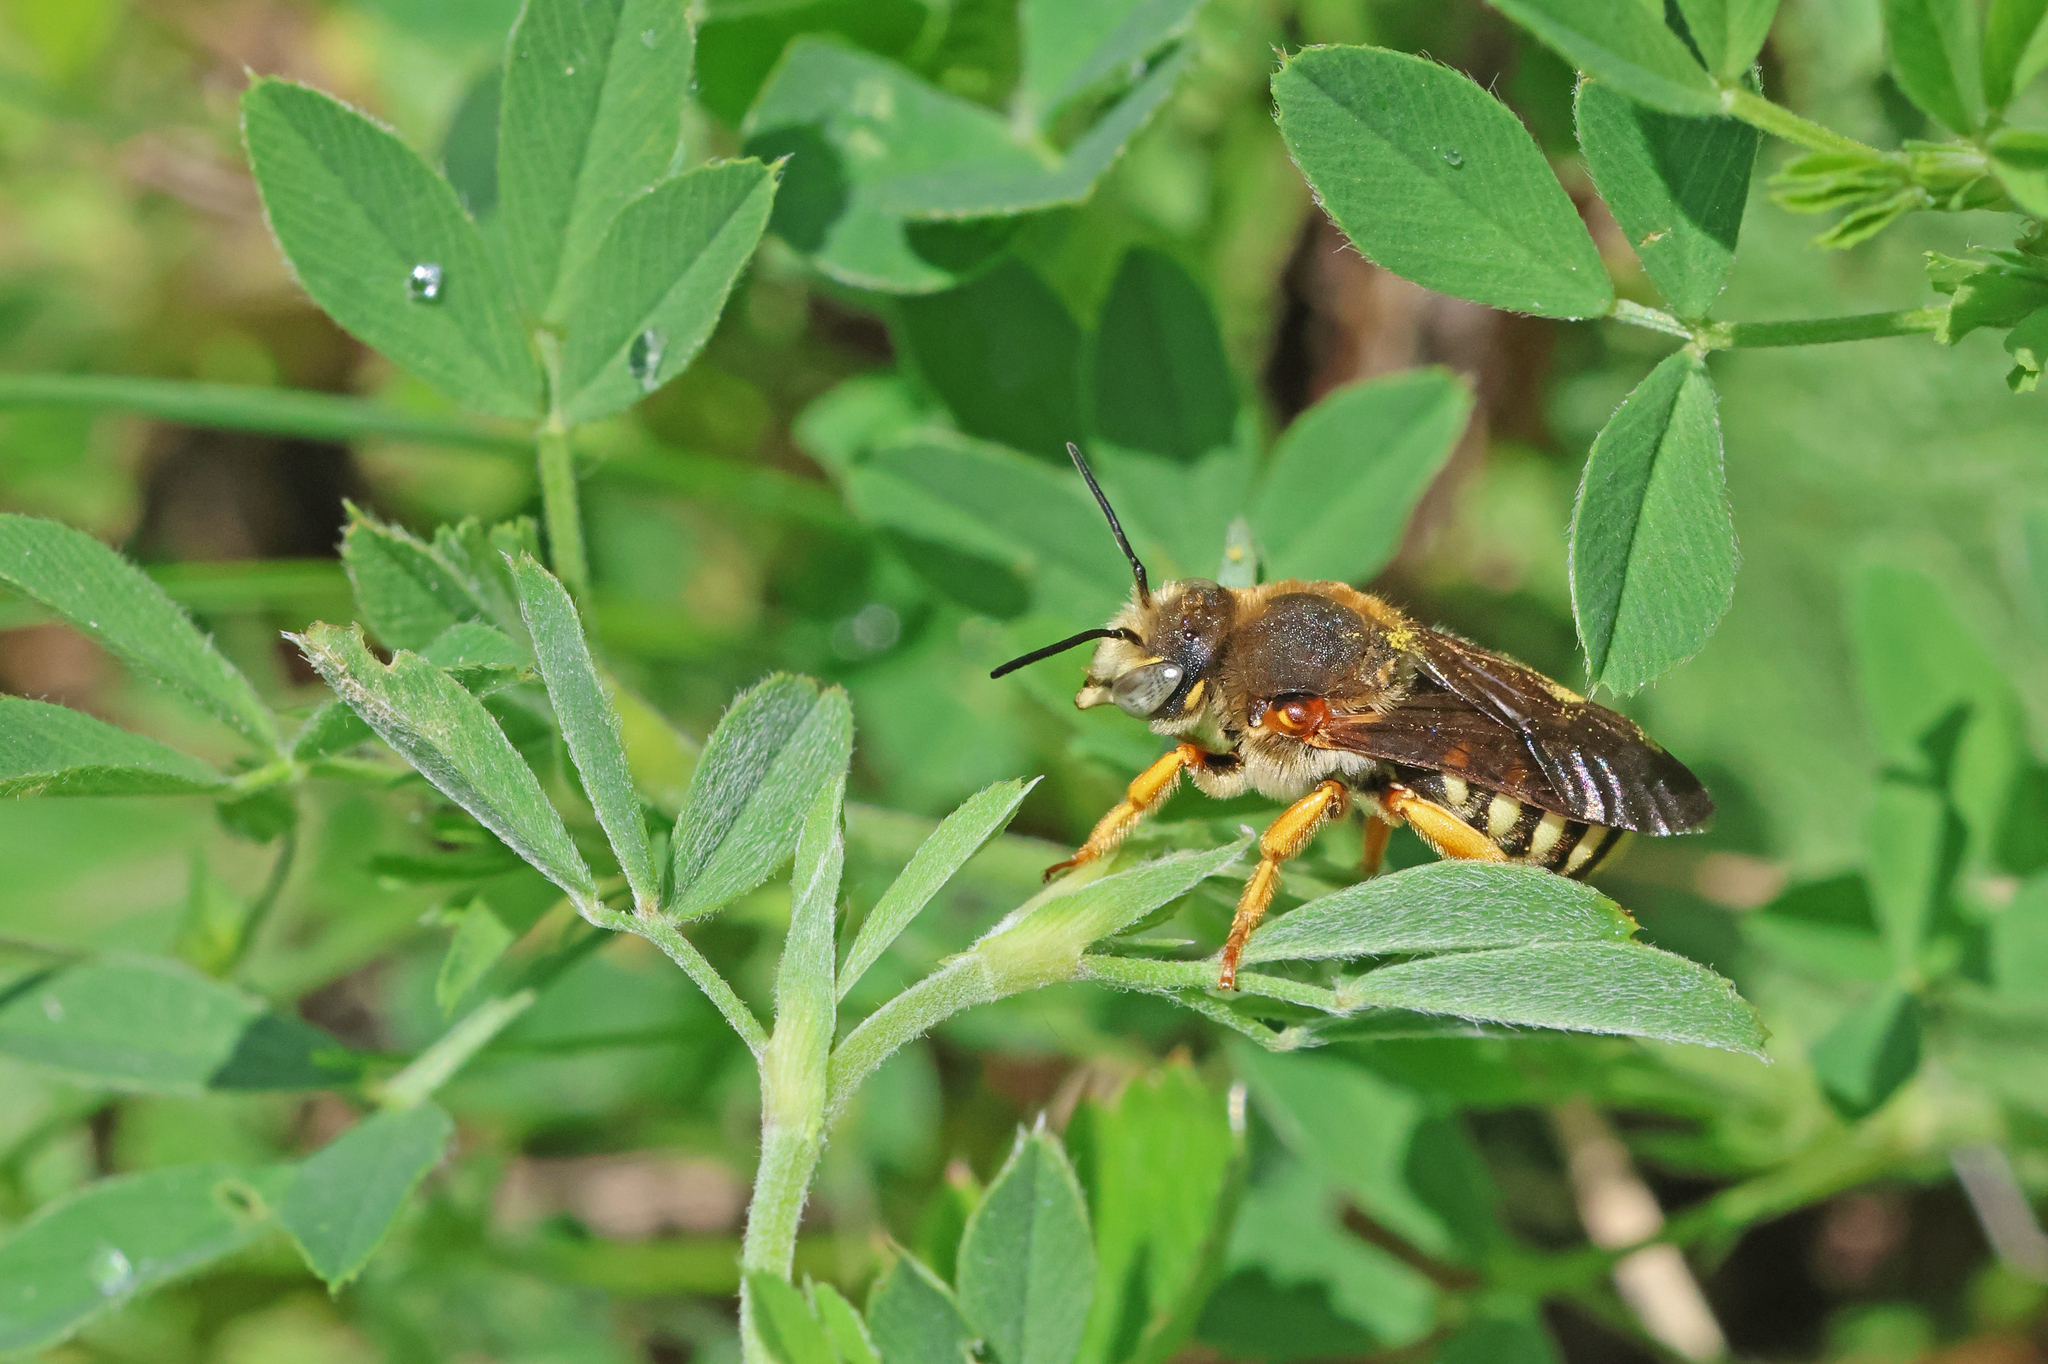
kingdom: Animalia
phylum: Arthropoda
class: Insecta
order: Hymenoptera
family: Megachilidae
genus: Rhodanthidium
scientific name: Rhodanthidium septemdentatum
